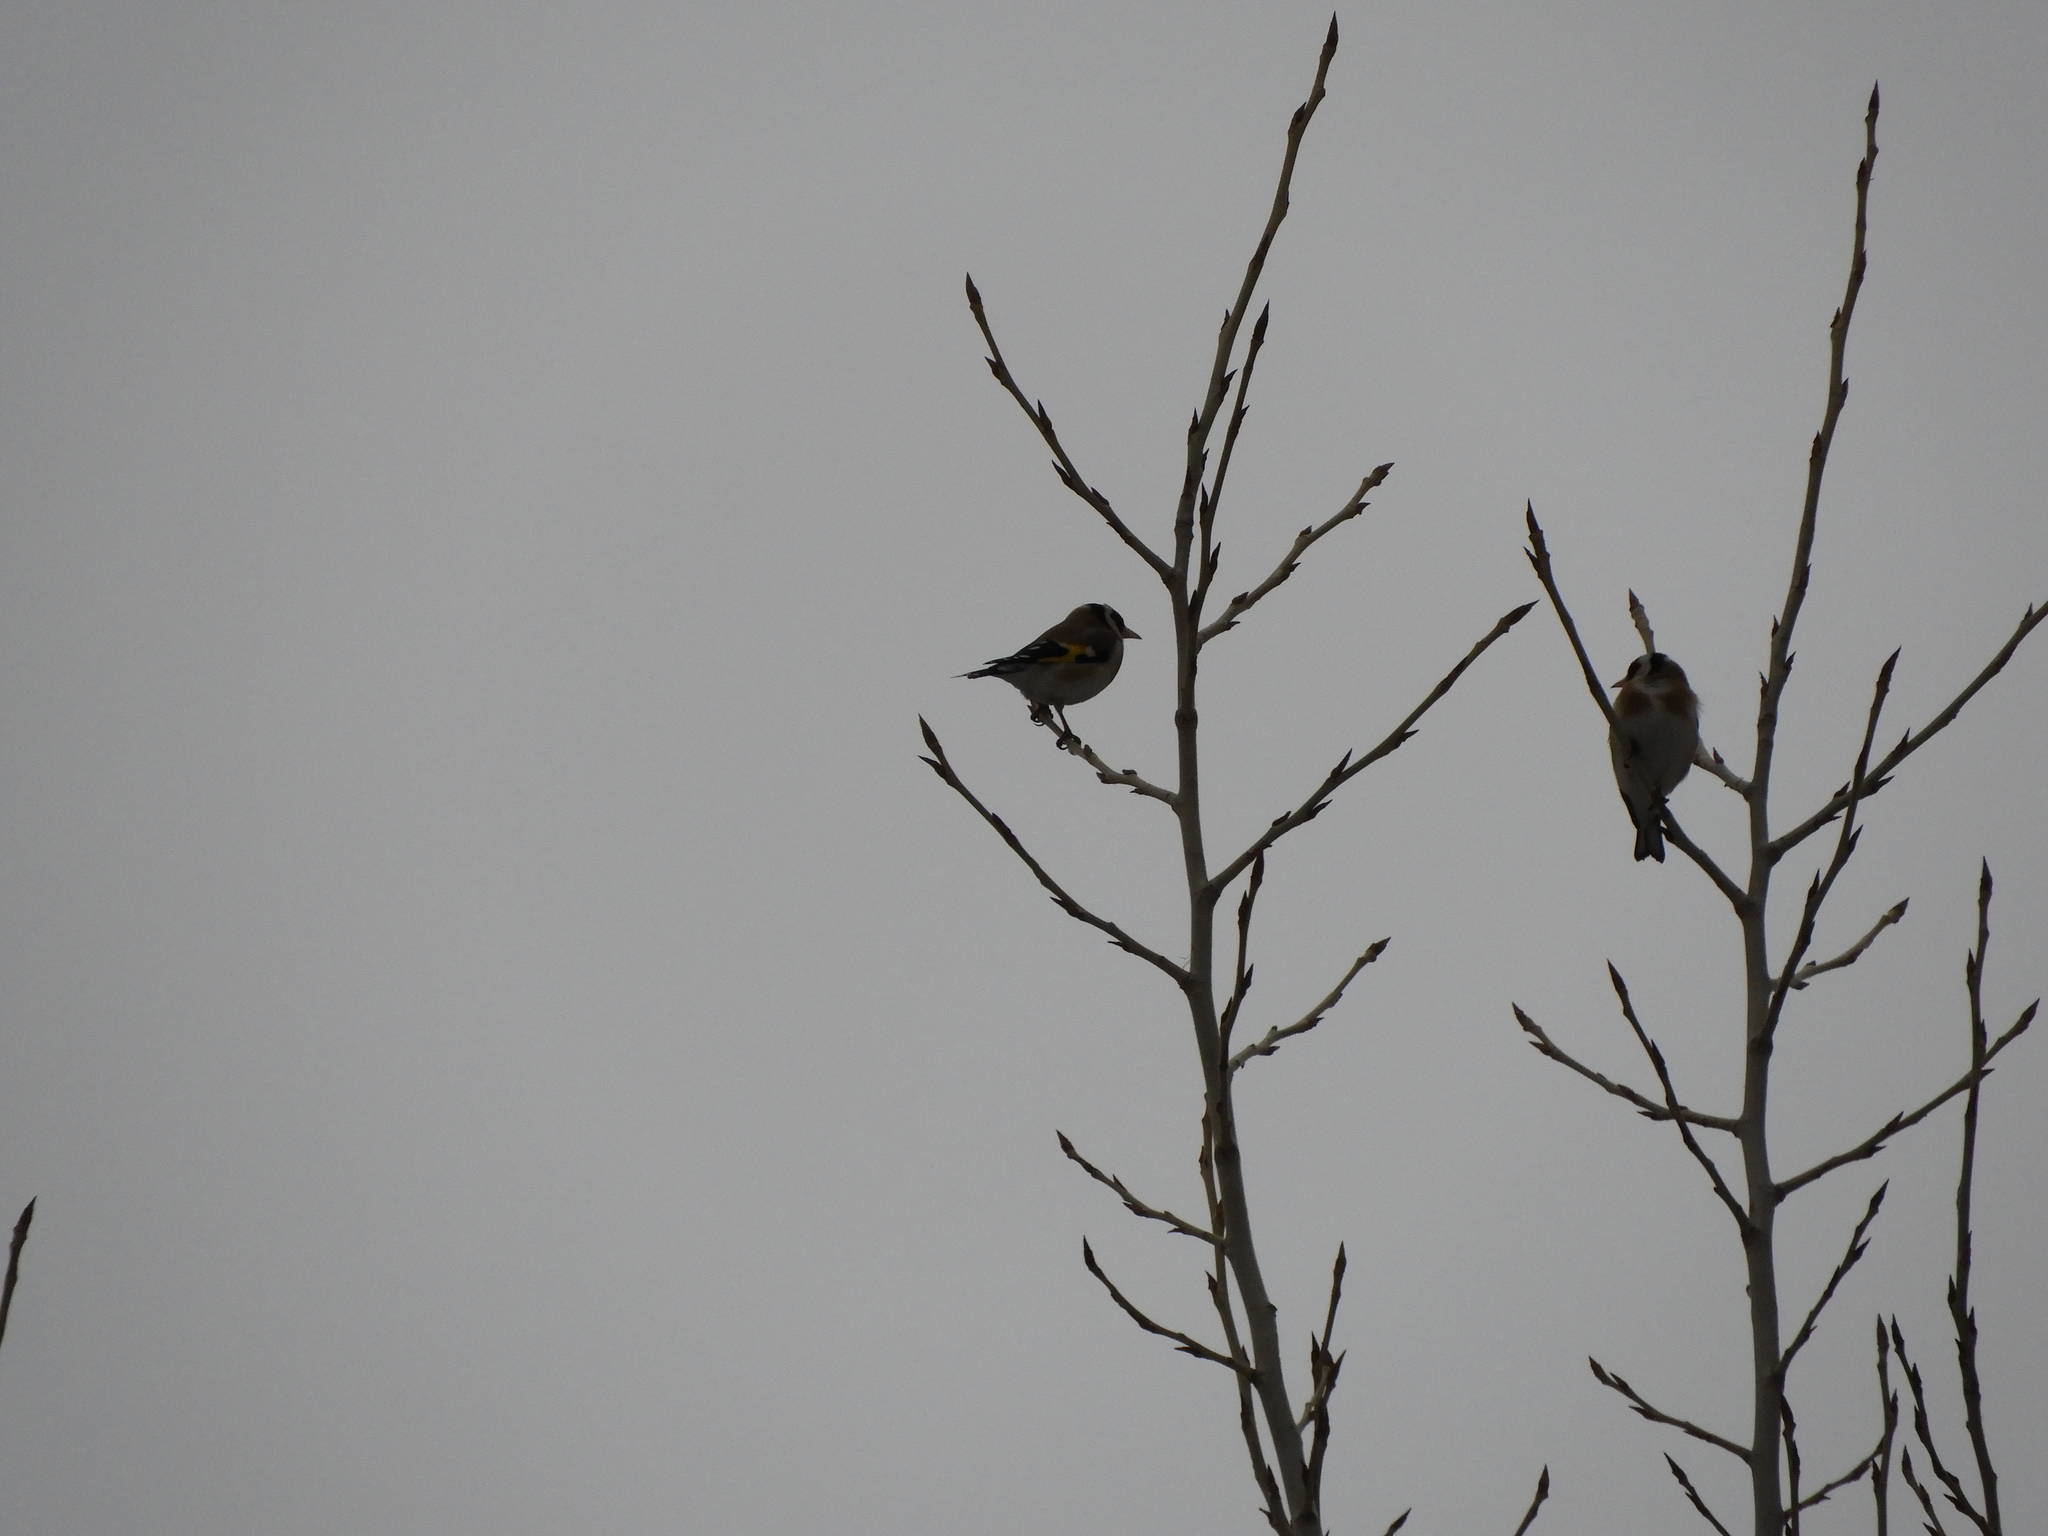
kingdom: Animalia
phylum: Chordata
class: Aves
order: Passeriformes
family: Fringillidae
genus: Carduelis
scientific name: Carduelis carduelis
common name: European goldfinch
